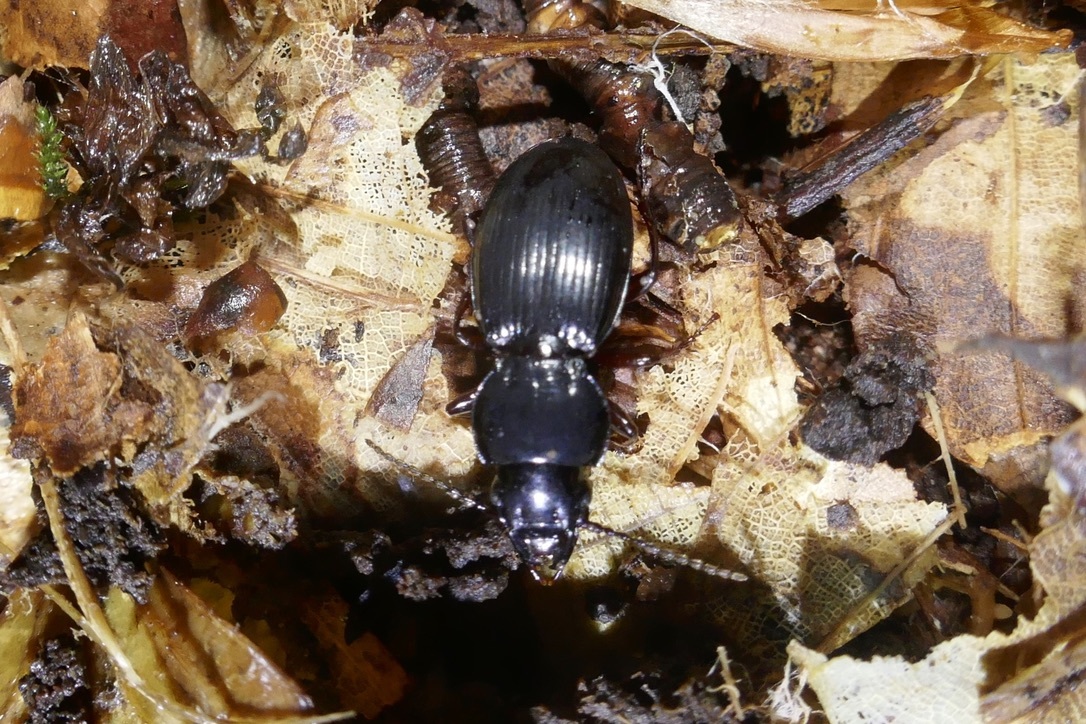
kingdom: Animalia
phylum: Arthropoda
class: Insecta
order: Coleoptera
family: Carabidae
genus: Molops
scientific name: Molops piceus
